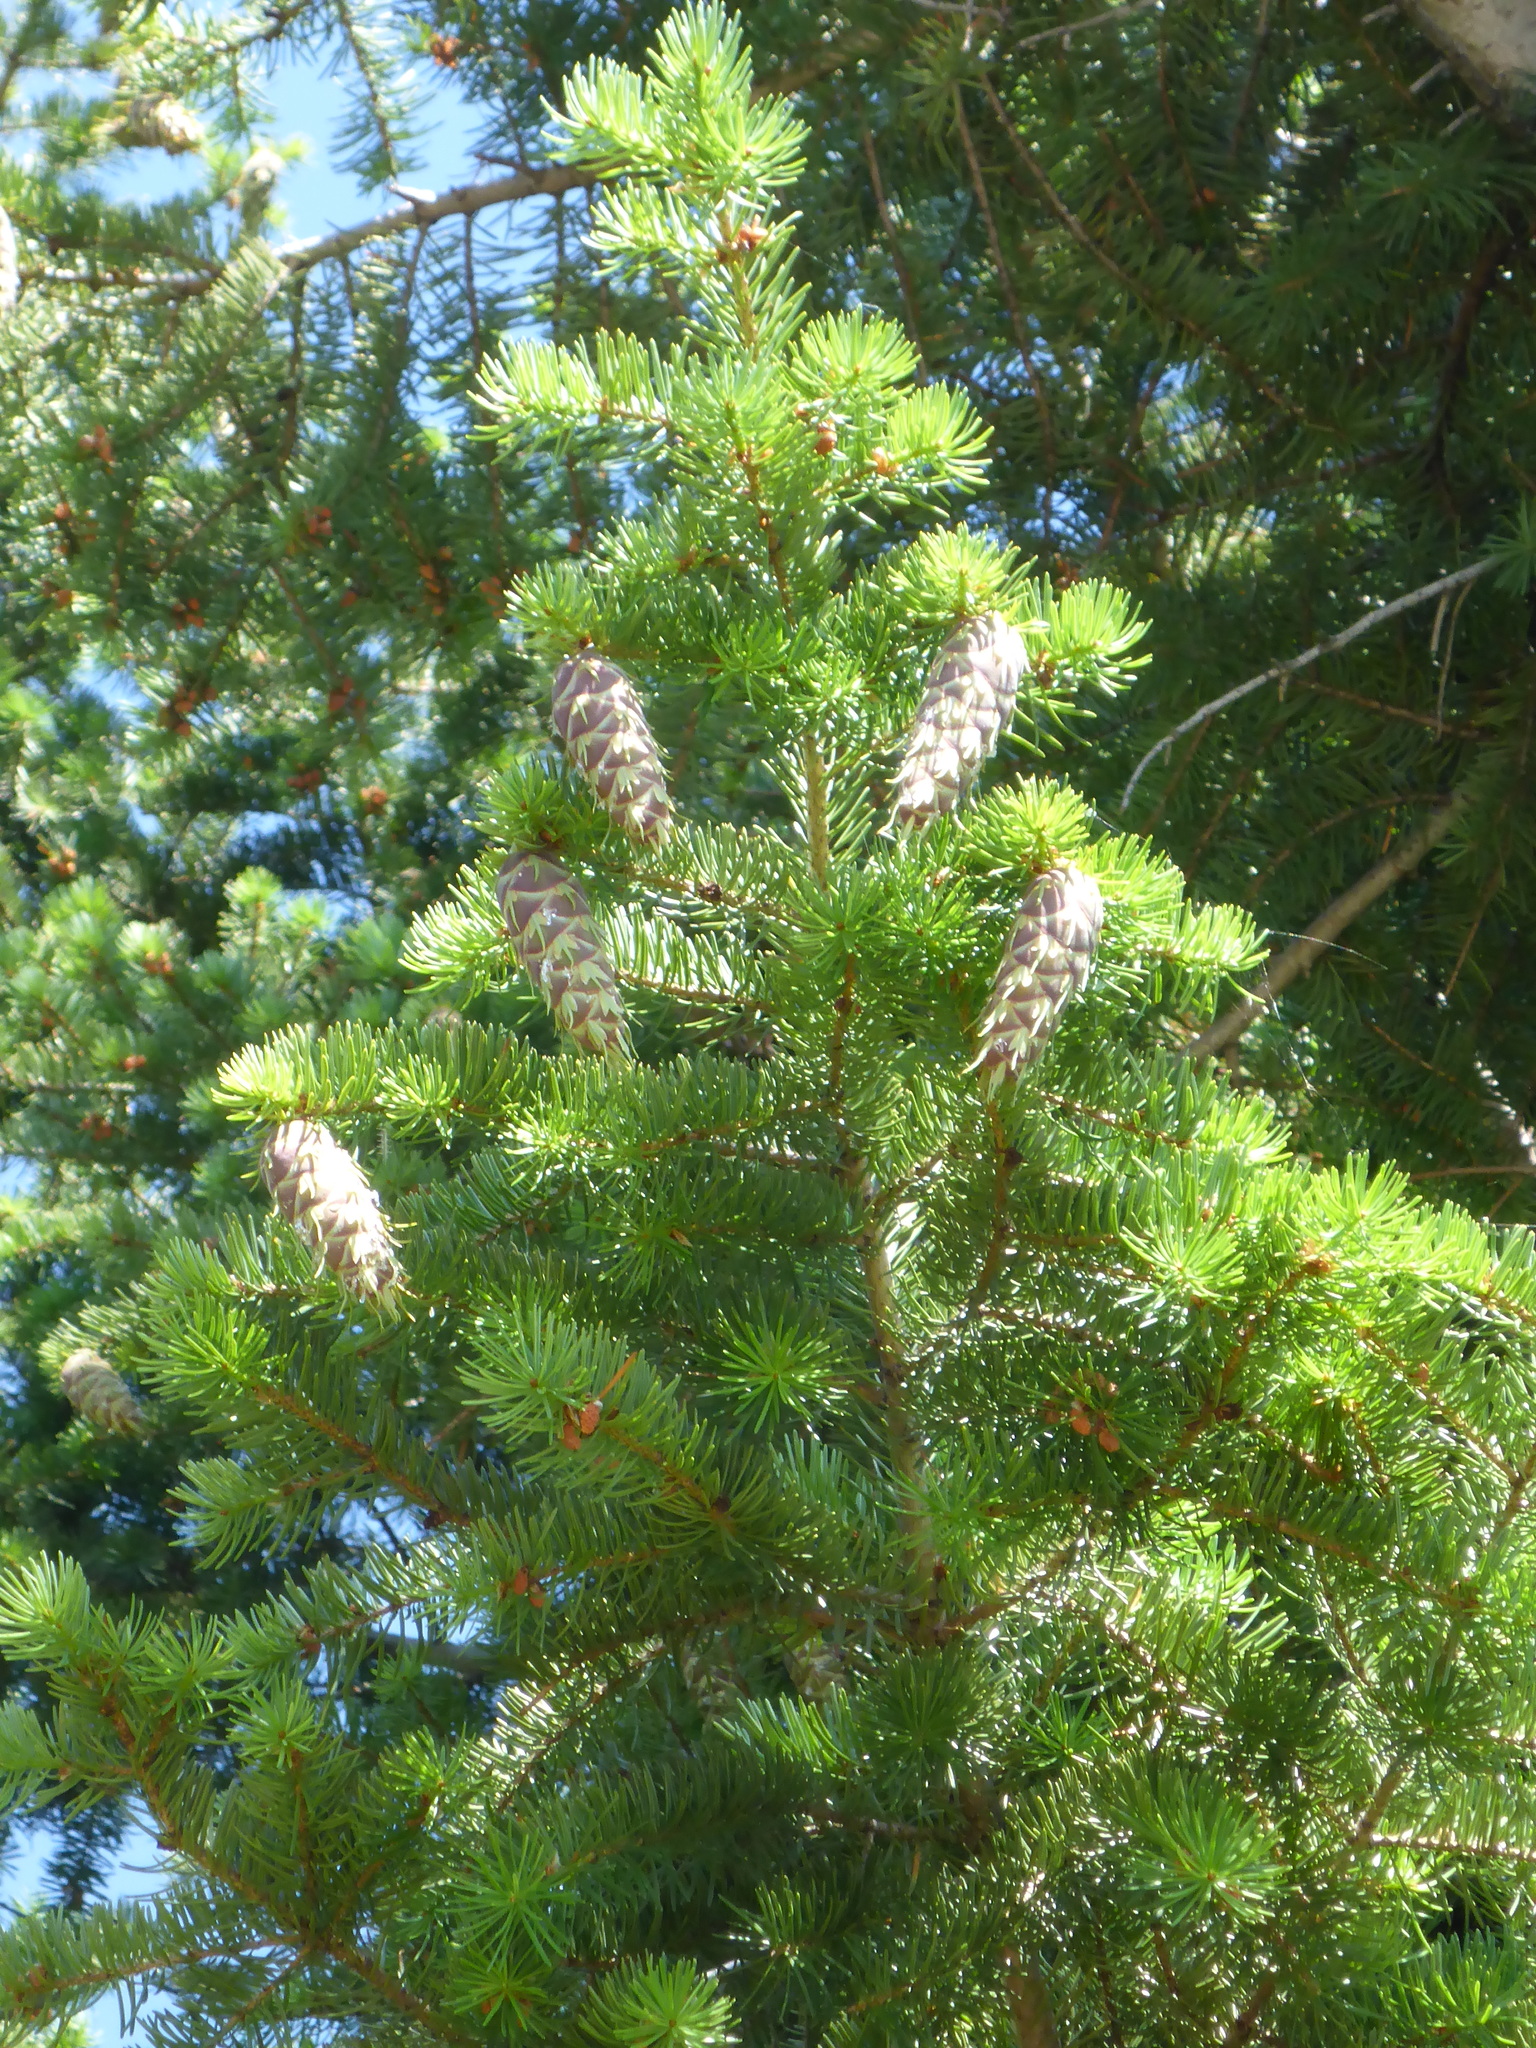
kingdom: Plantae
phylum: Tracheophyta
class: Pinopsida
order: Pinales
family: Pinaceae
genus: Pseudotsuga
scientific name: Pseudotsuga menziesii
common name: Douglas fir
